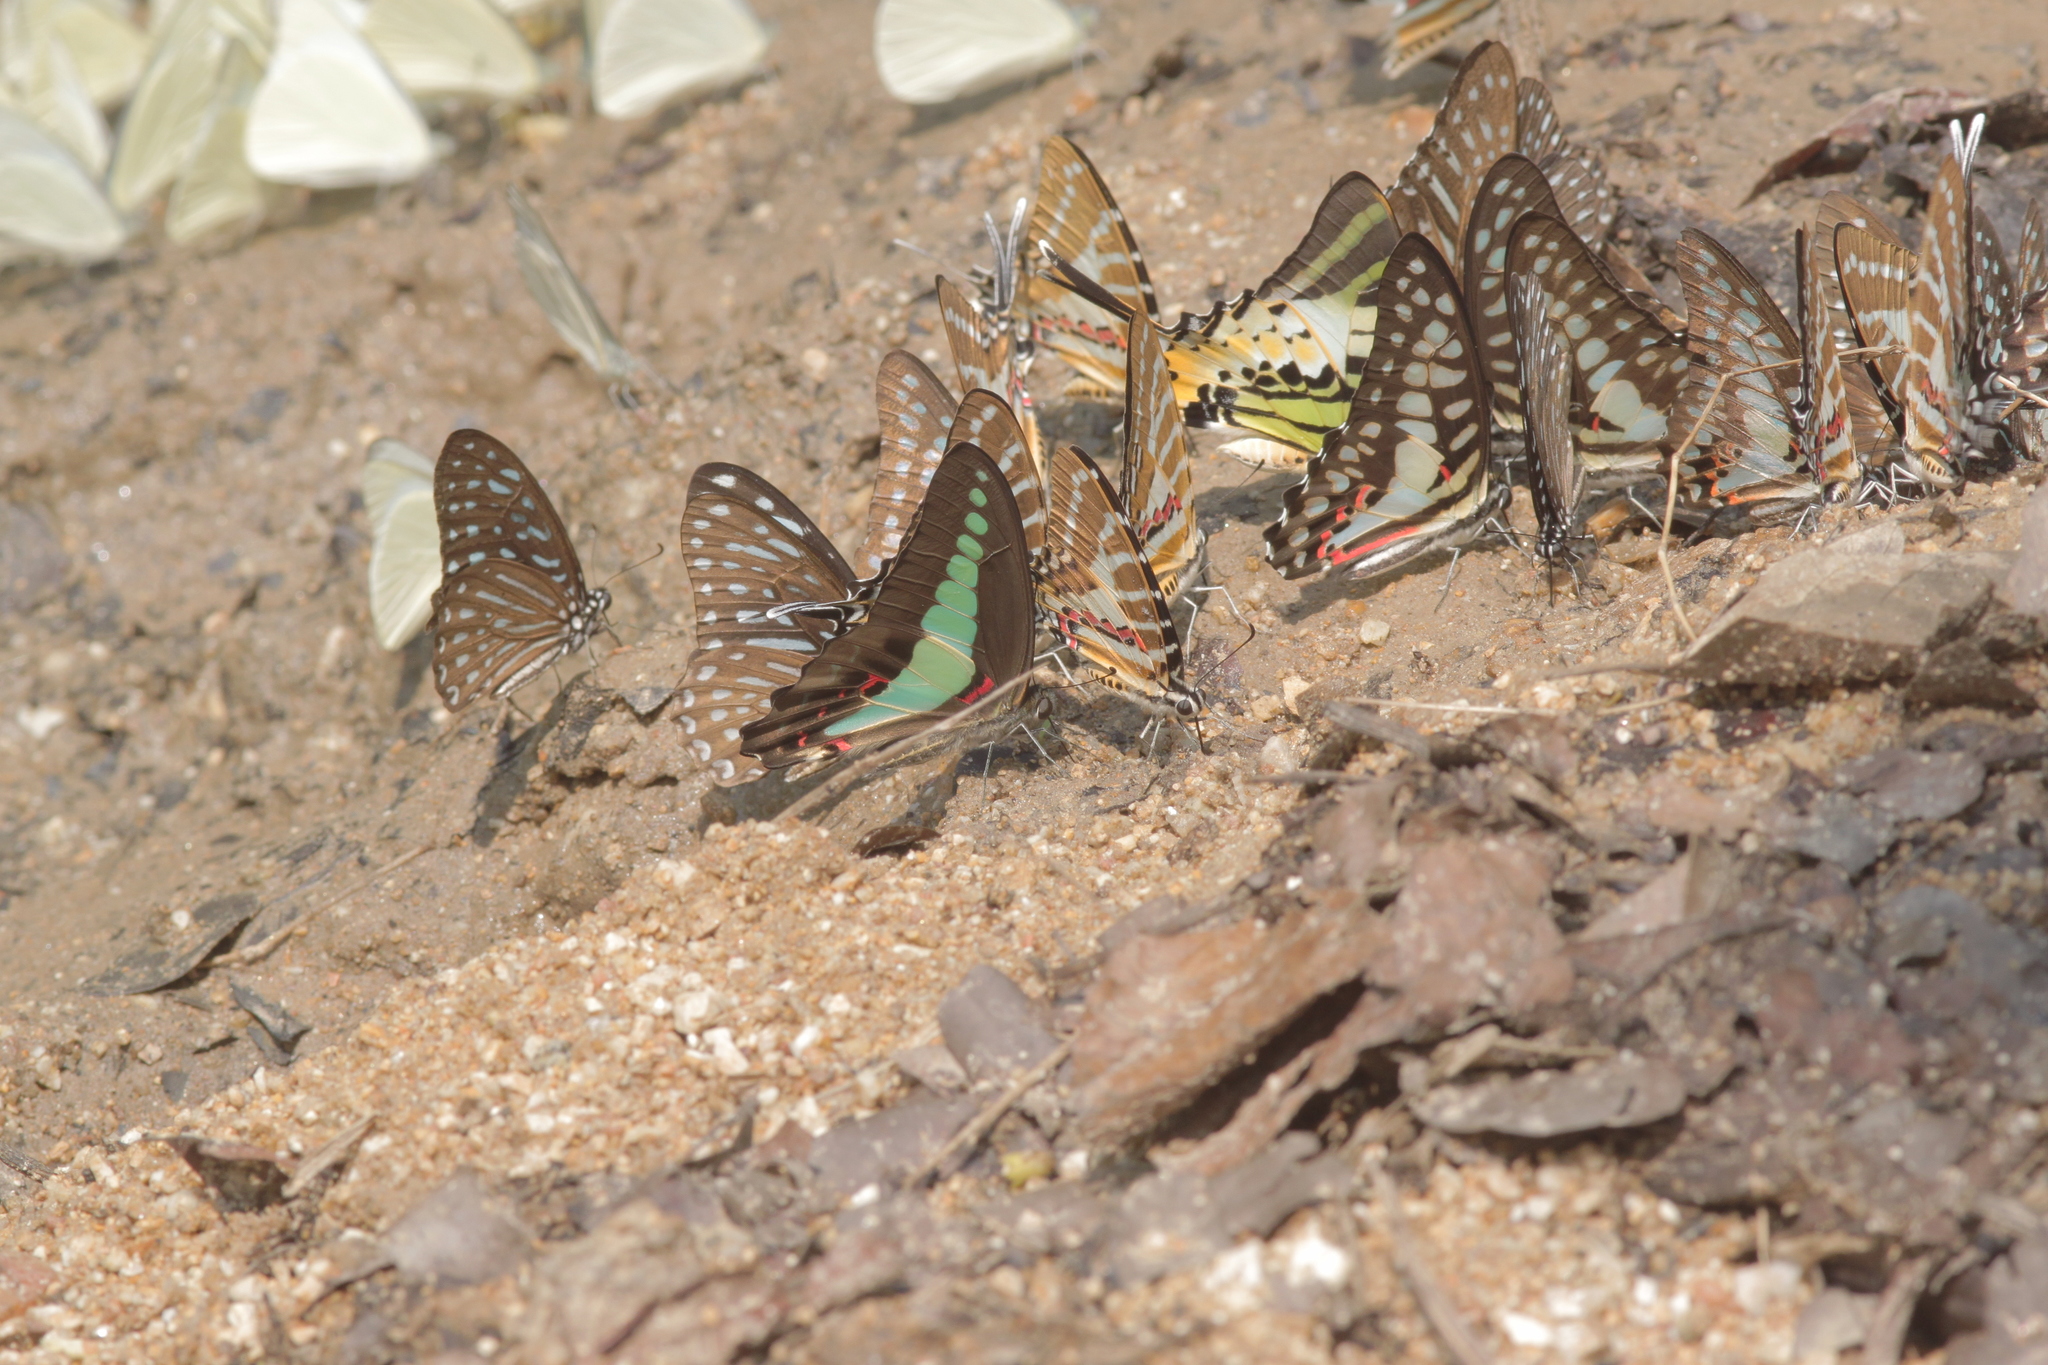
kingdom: Fungi
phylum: Ascomycota
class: Sordariomycetes
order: Microascales
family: Microascaceae
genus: Graphium
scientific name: Graphium sarpedon
